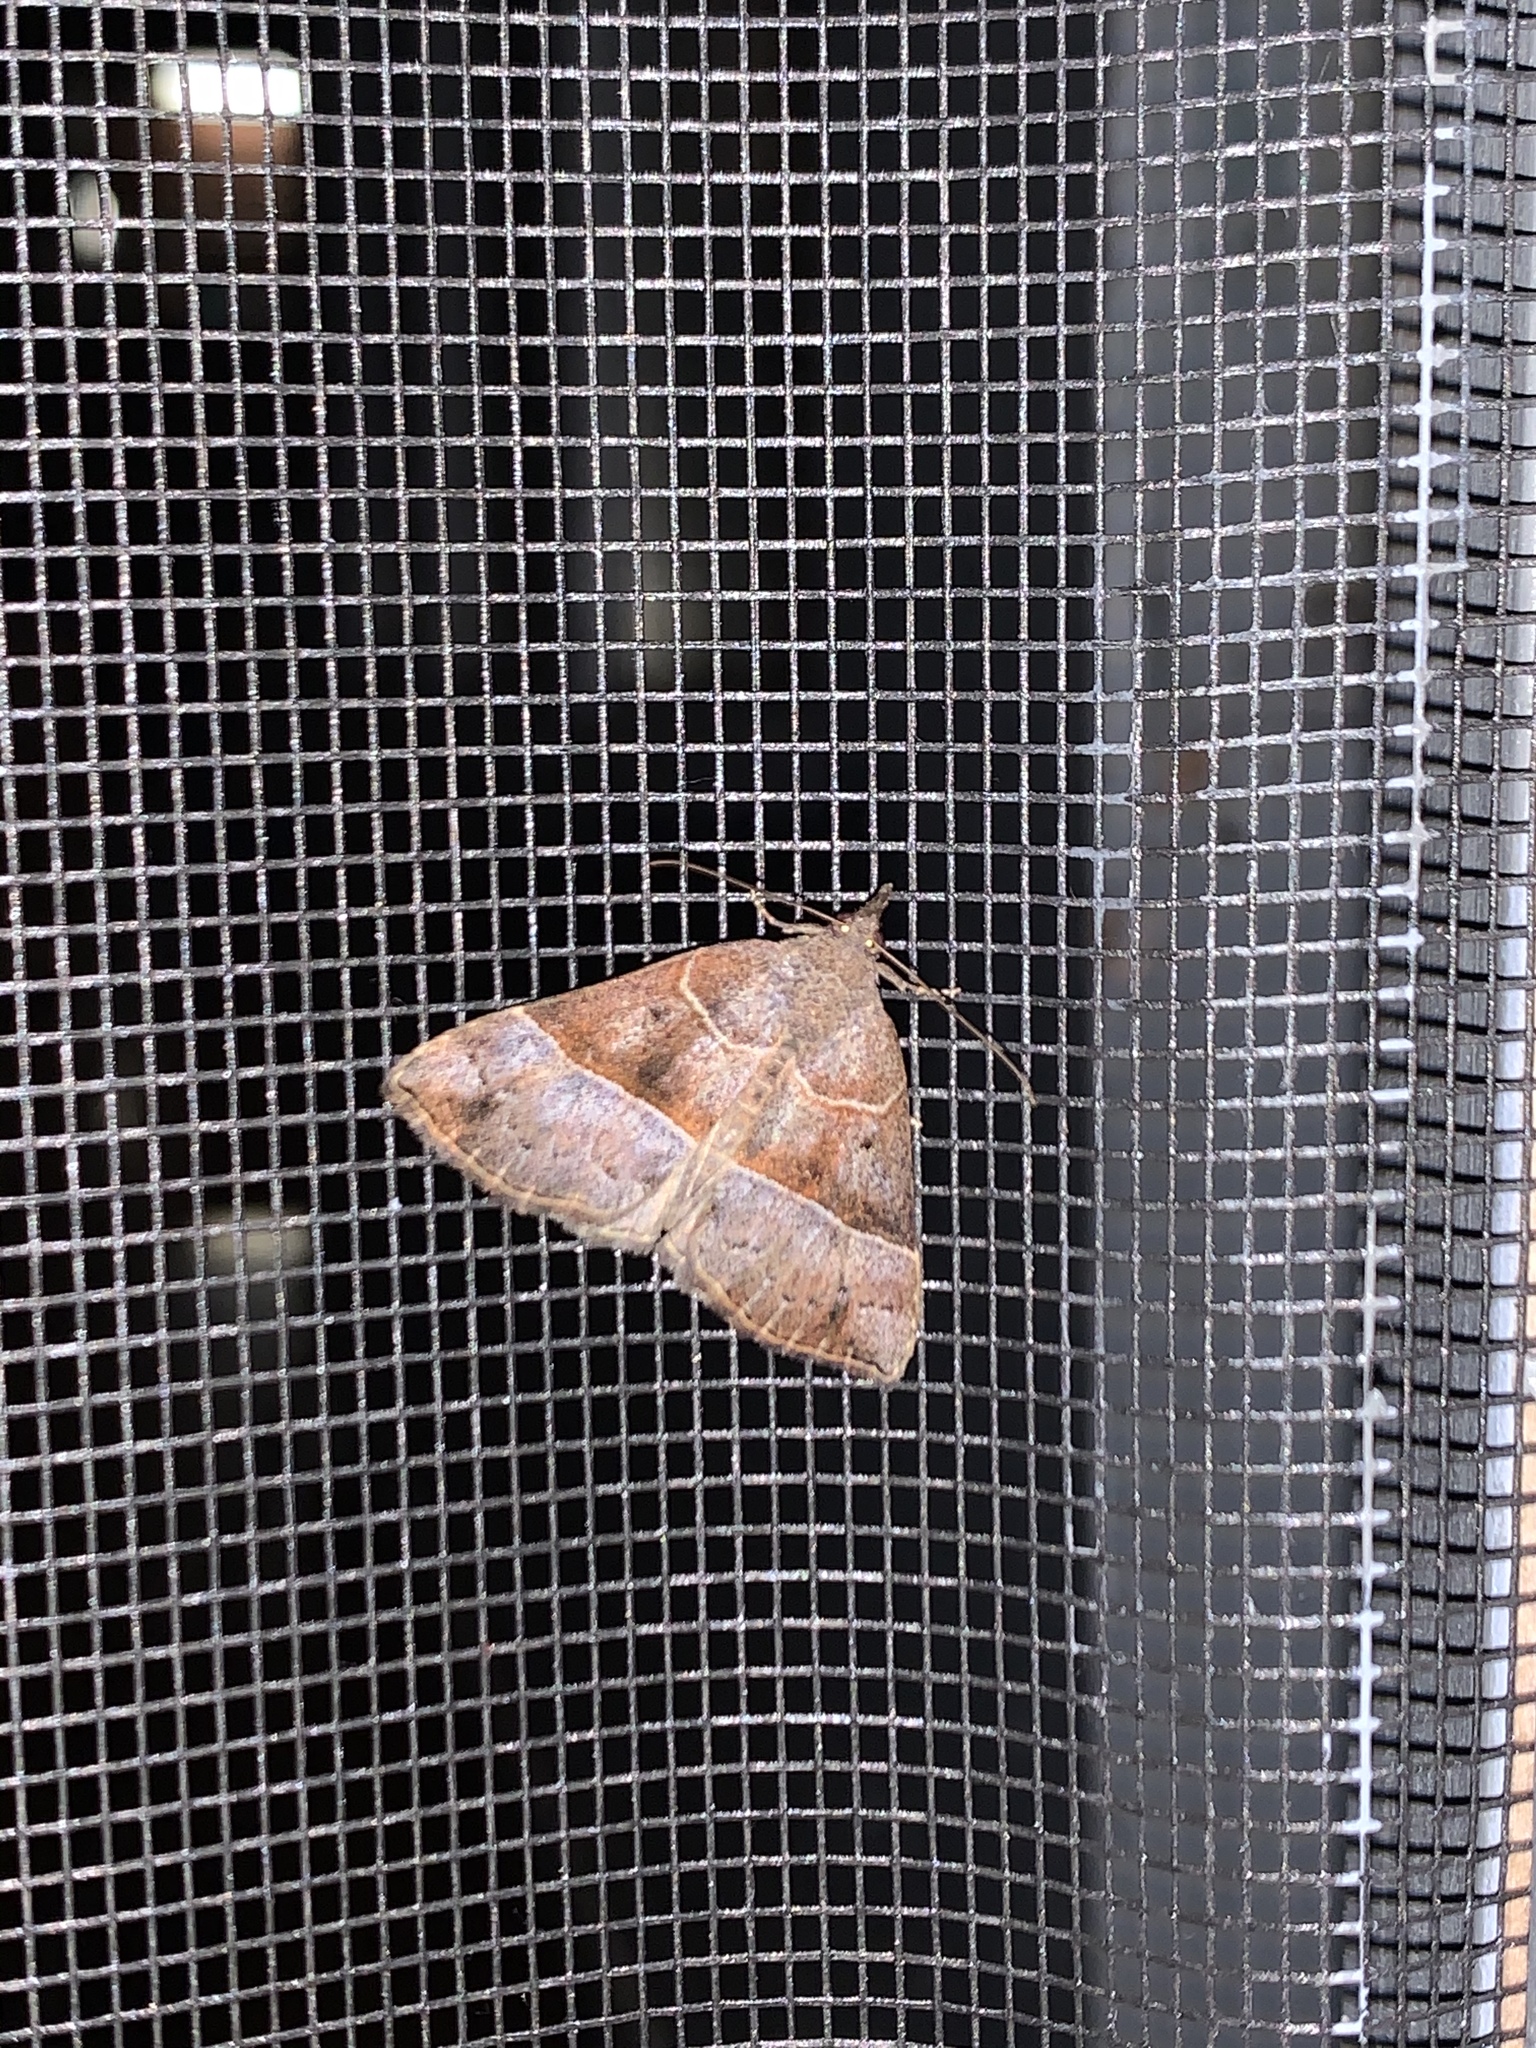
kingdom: Animalia
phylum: Arthropoda
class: Insecta
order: Lepidoptera
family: Erebidae
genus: Hypena
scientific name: Hypena deceptalis
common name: Deceptive snout
